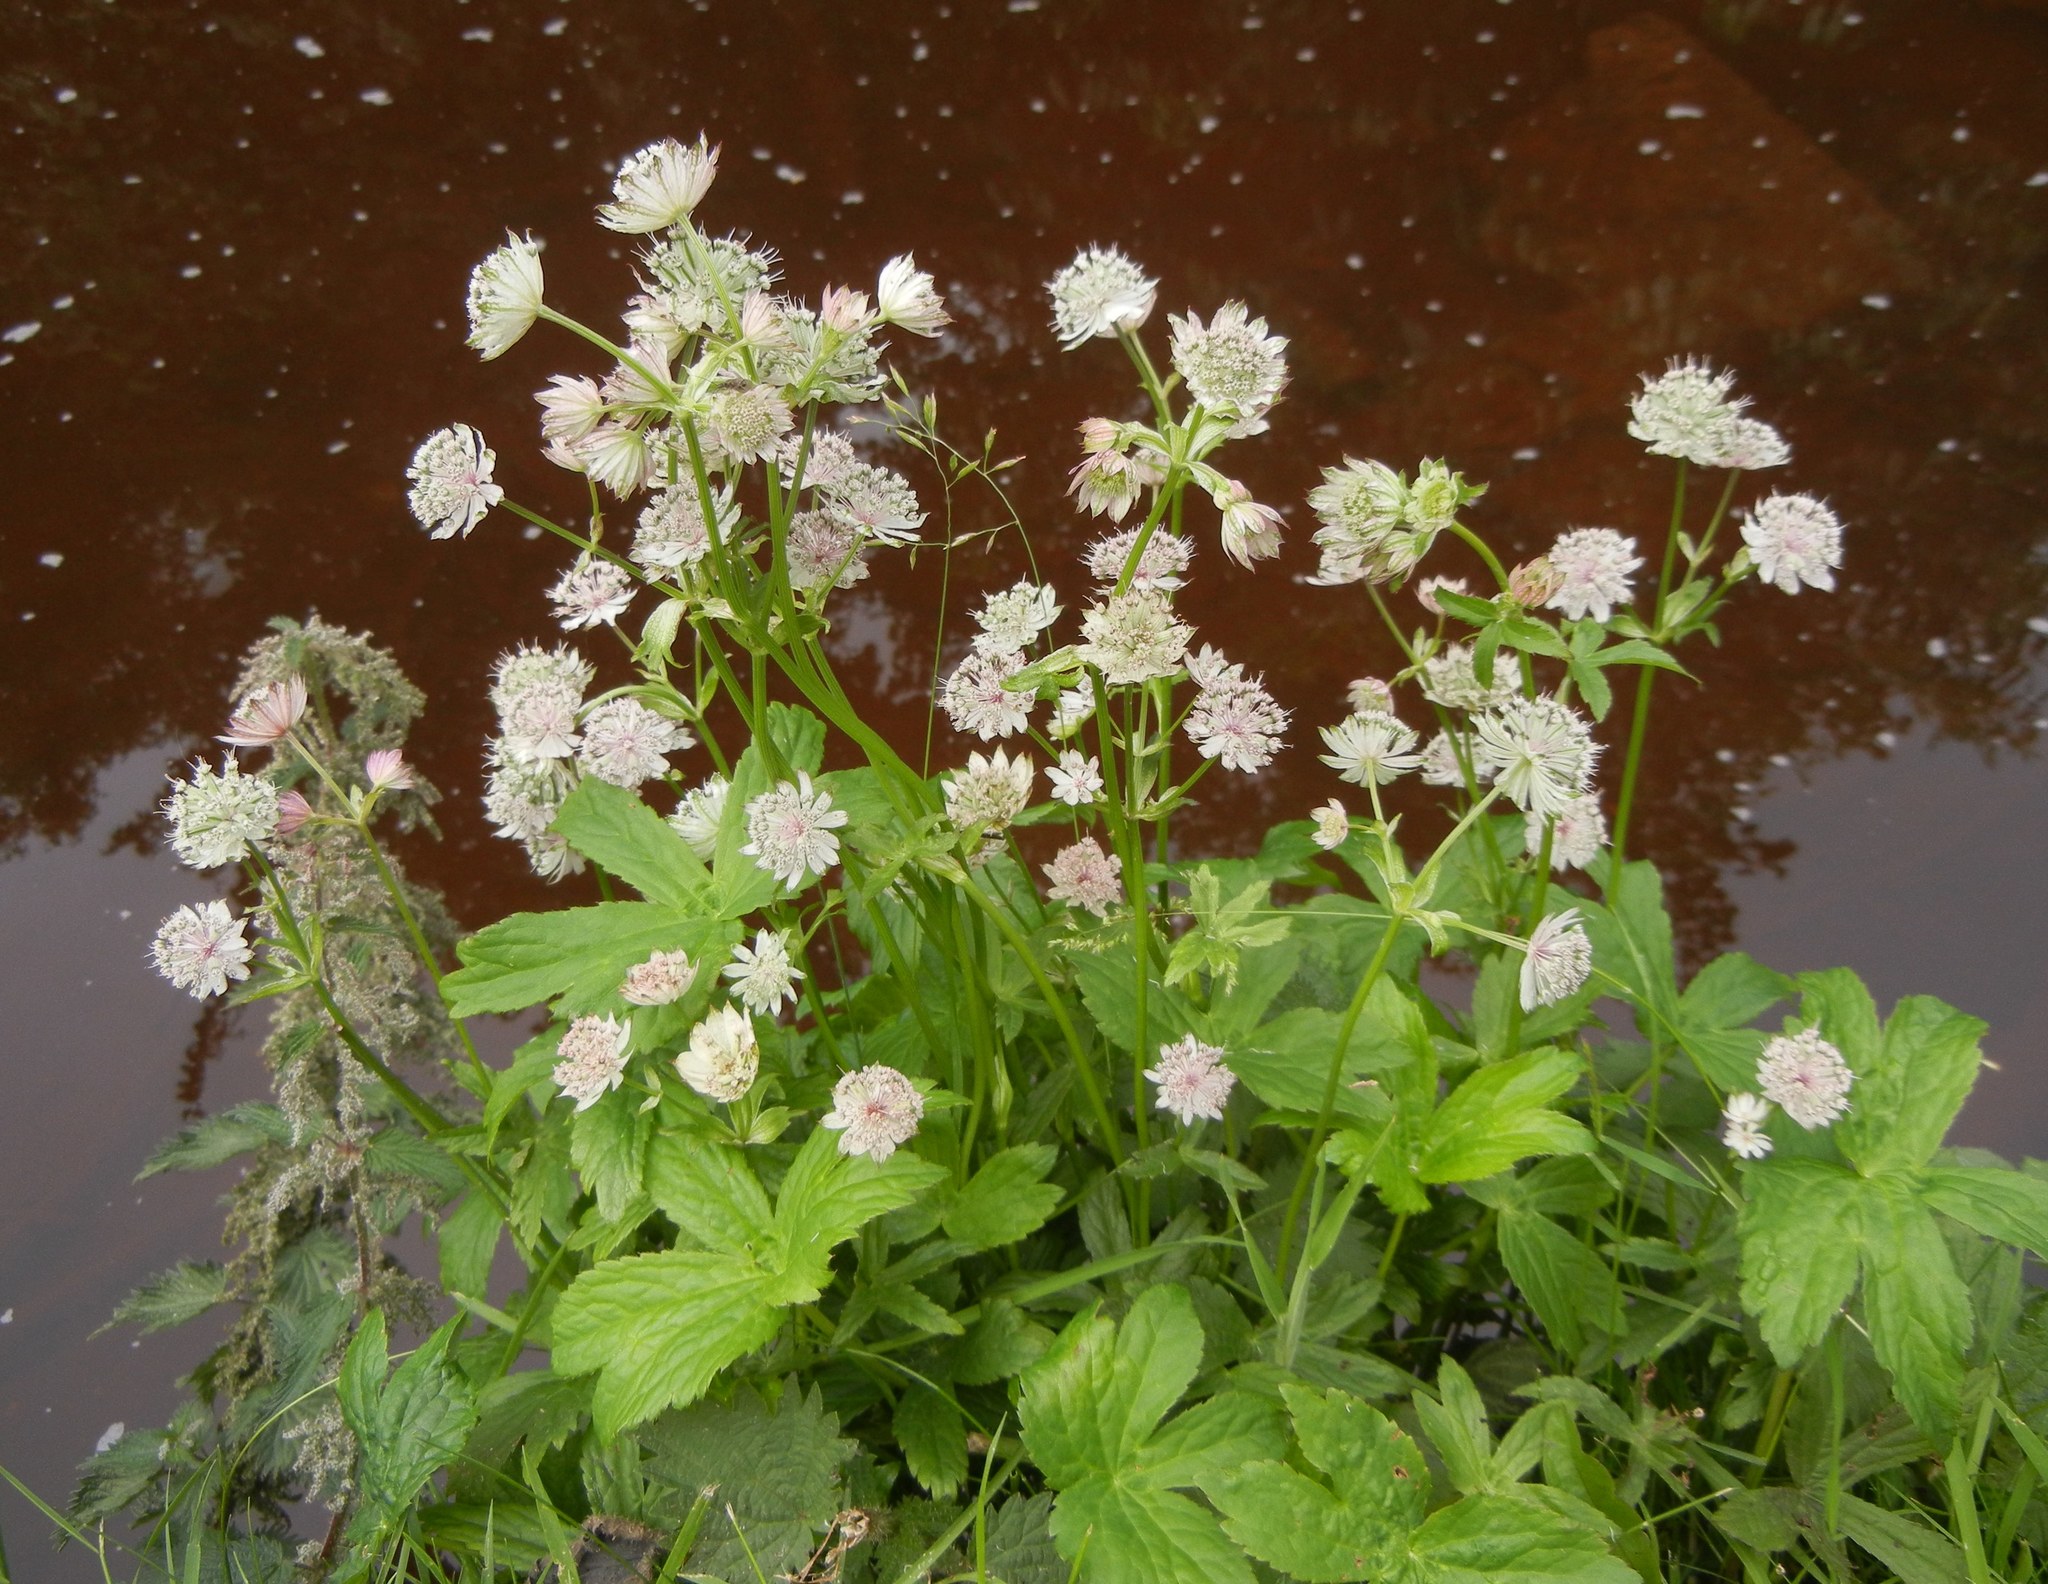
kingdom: Plantae
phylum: Tracheophyta
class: Magnoliopsida
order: Apiales
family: Apiaceae
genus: Astrantia
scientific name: Astrantia major
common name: Greater masterwort
